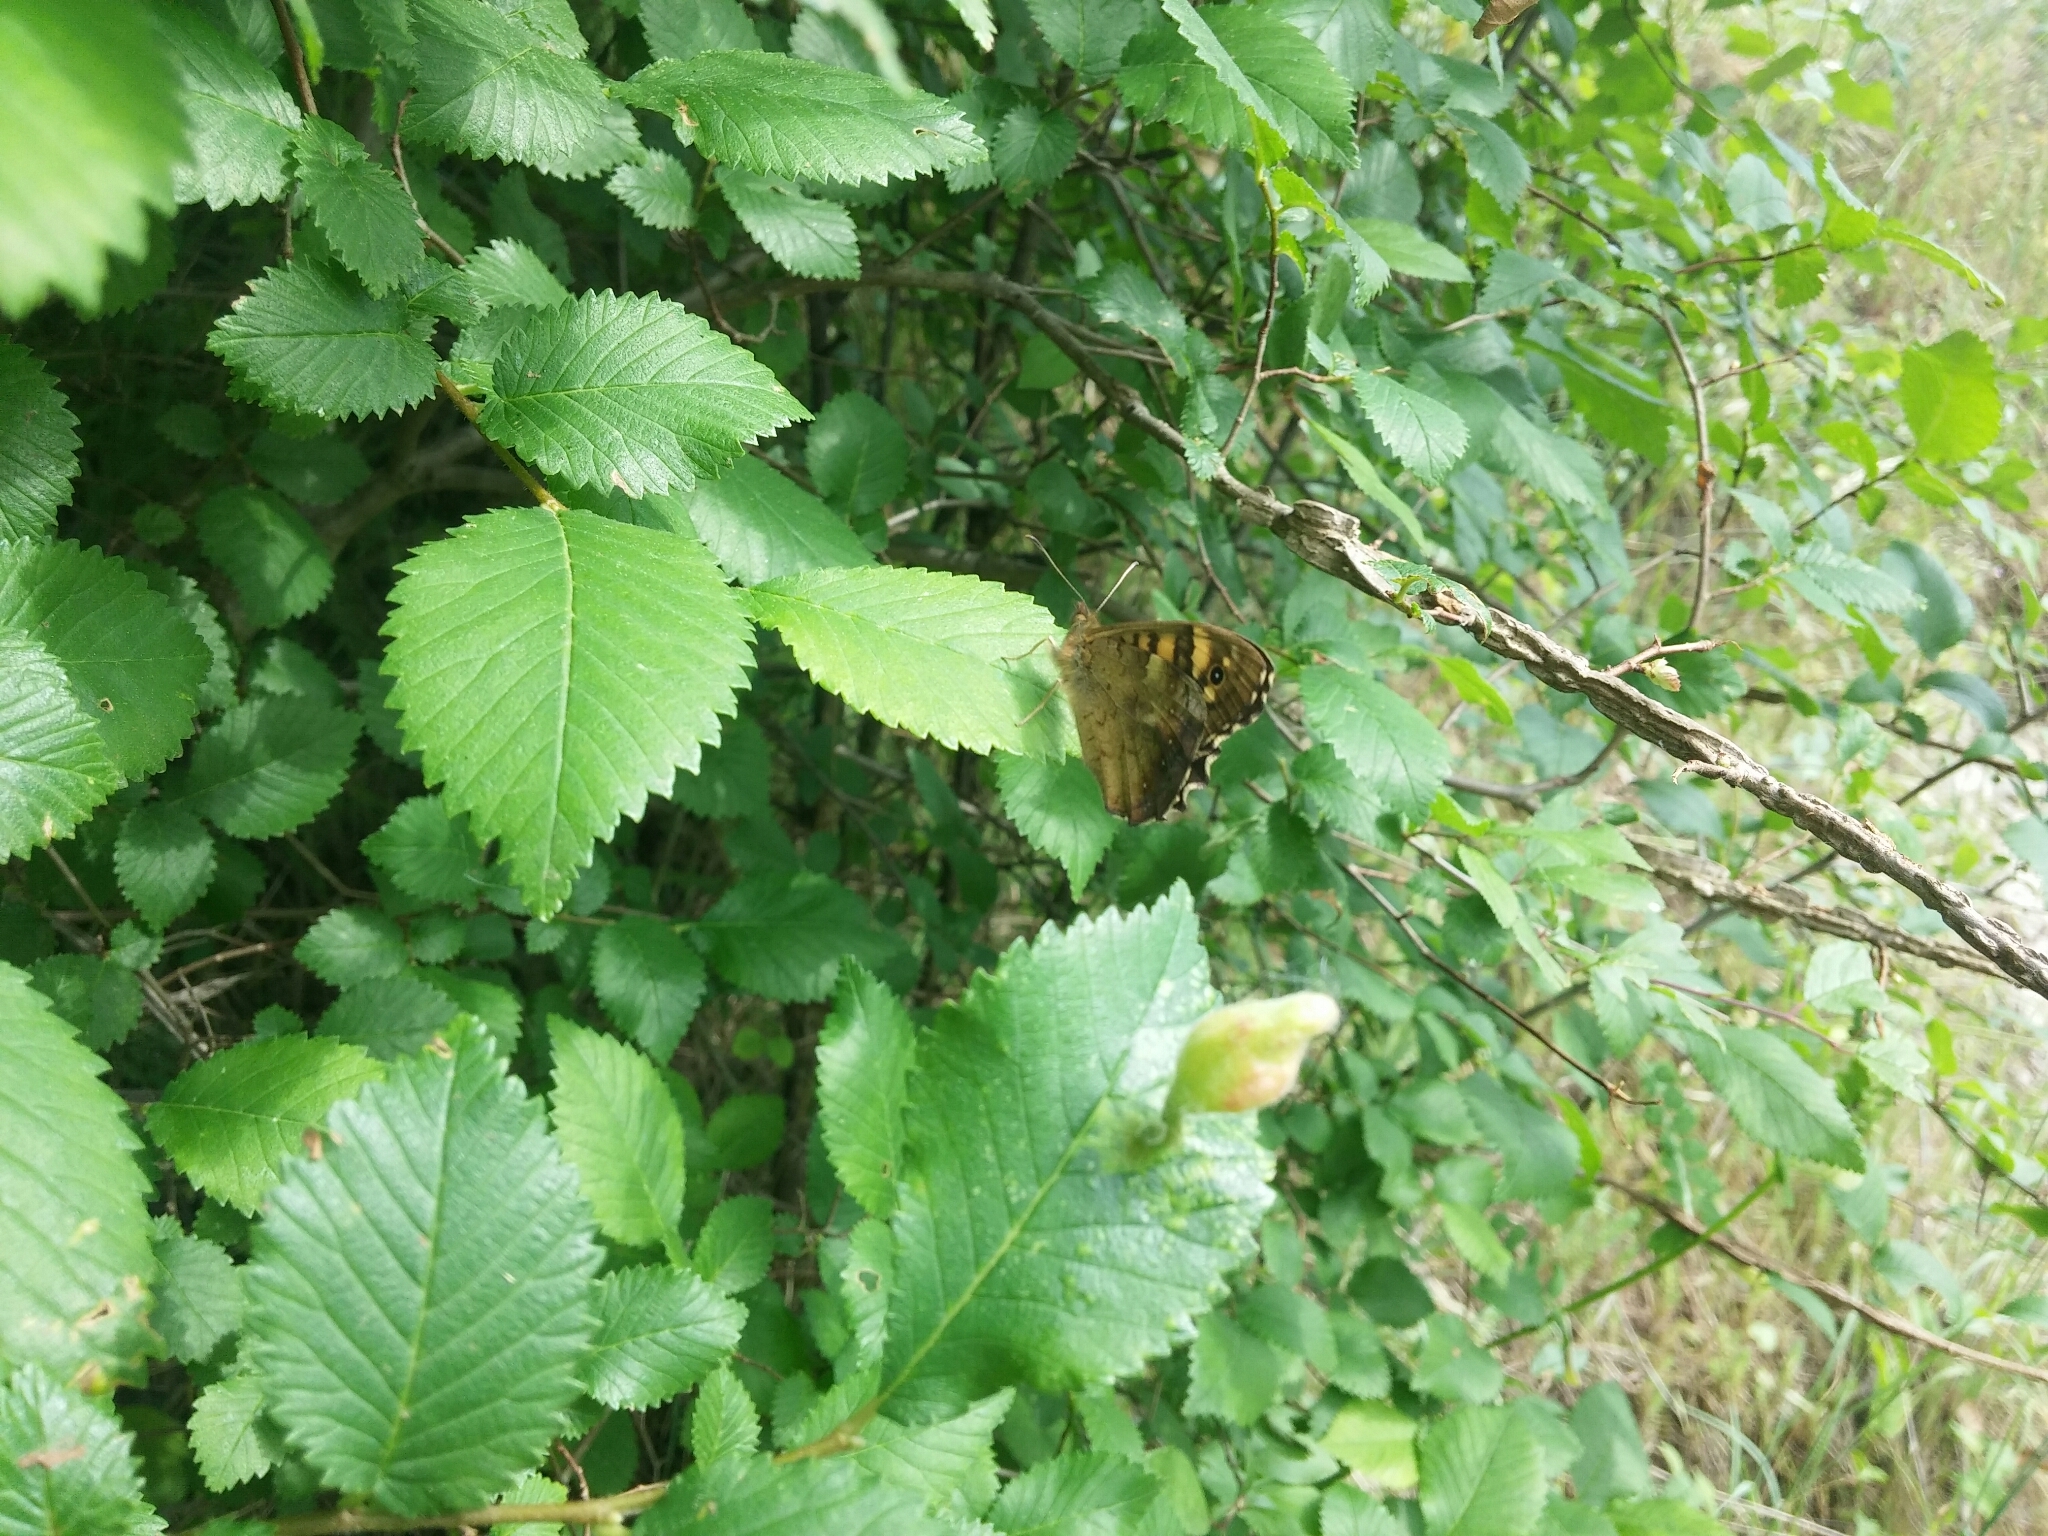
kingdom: Animalia
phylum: Arthropoda
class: Insecta
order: Lepidoptera
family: Nymphalidae
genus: Pararge
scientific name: Pararge aegeria
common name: Speckled wood
